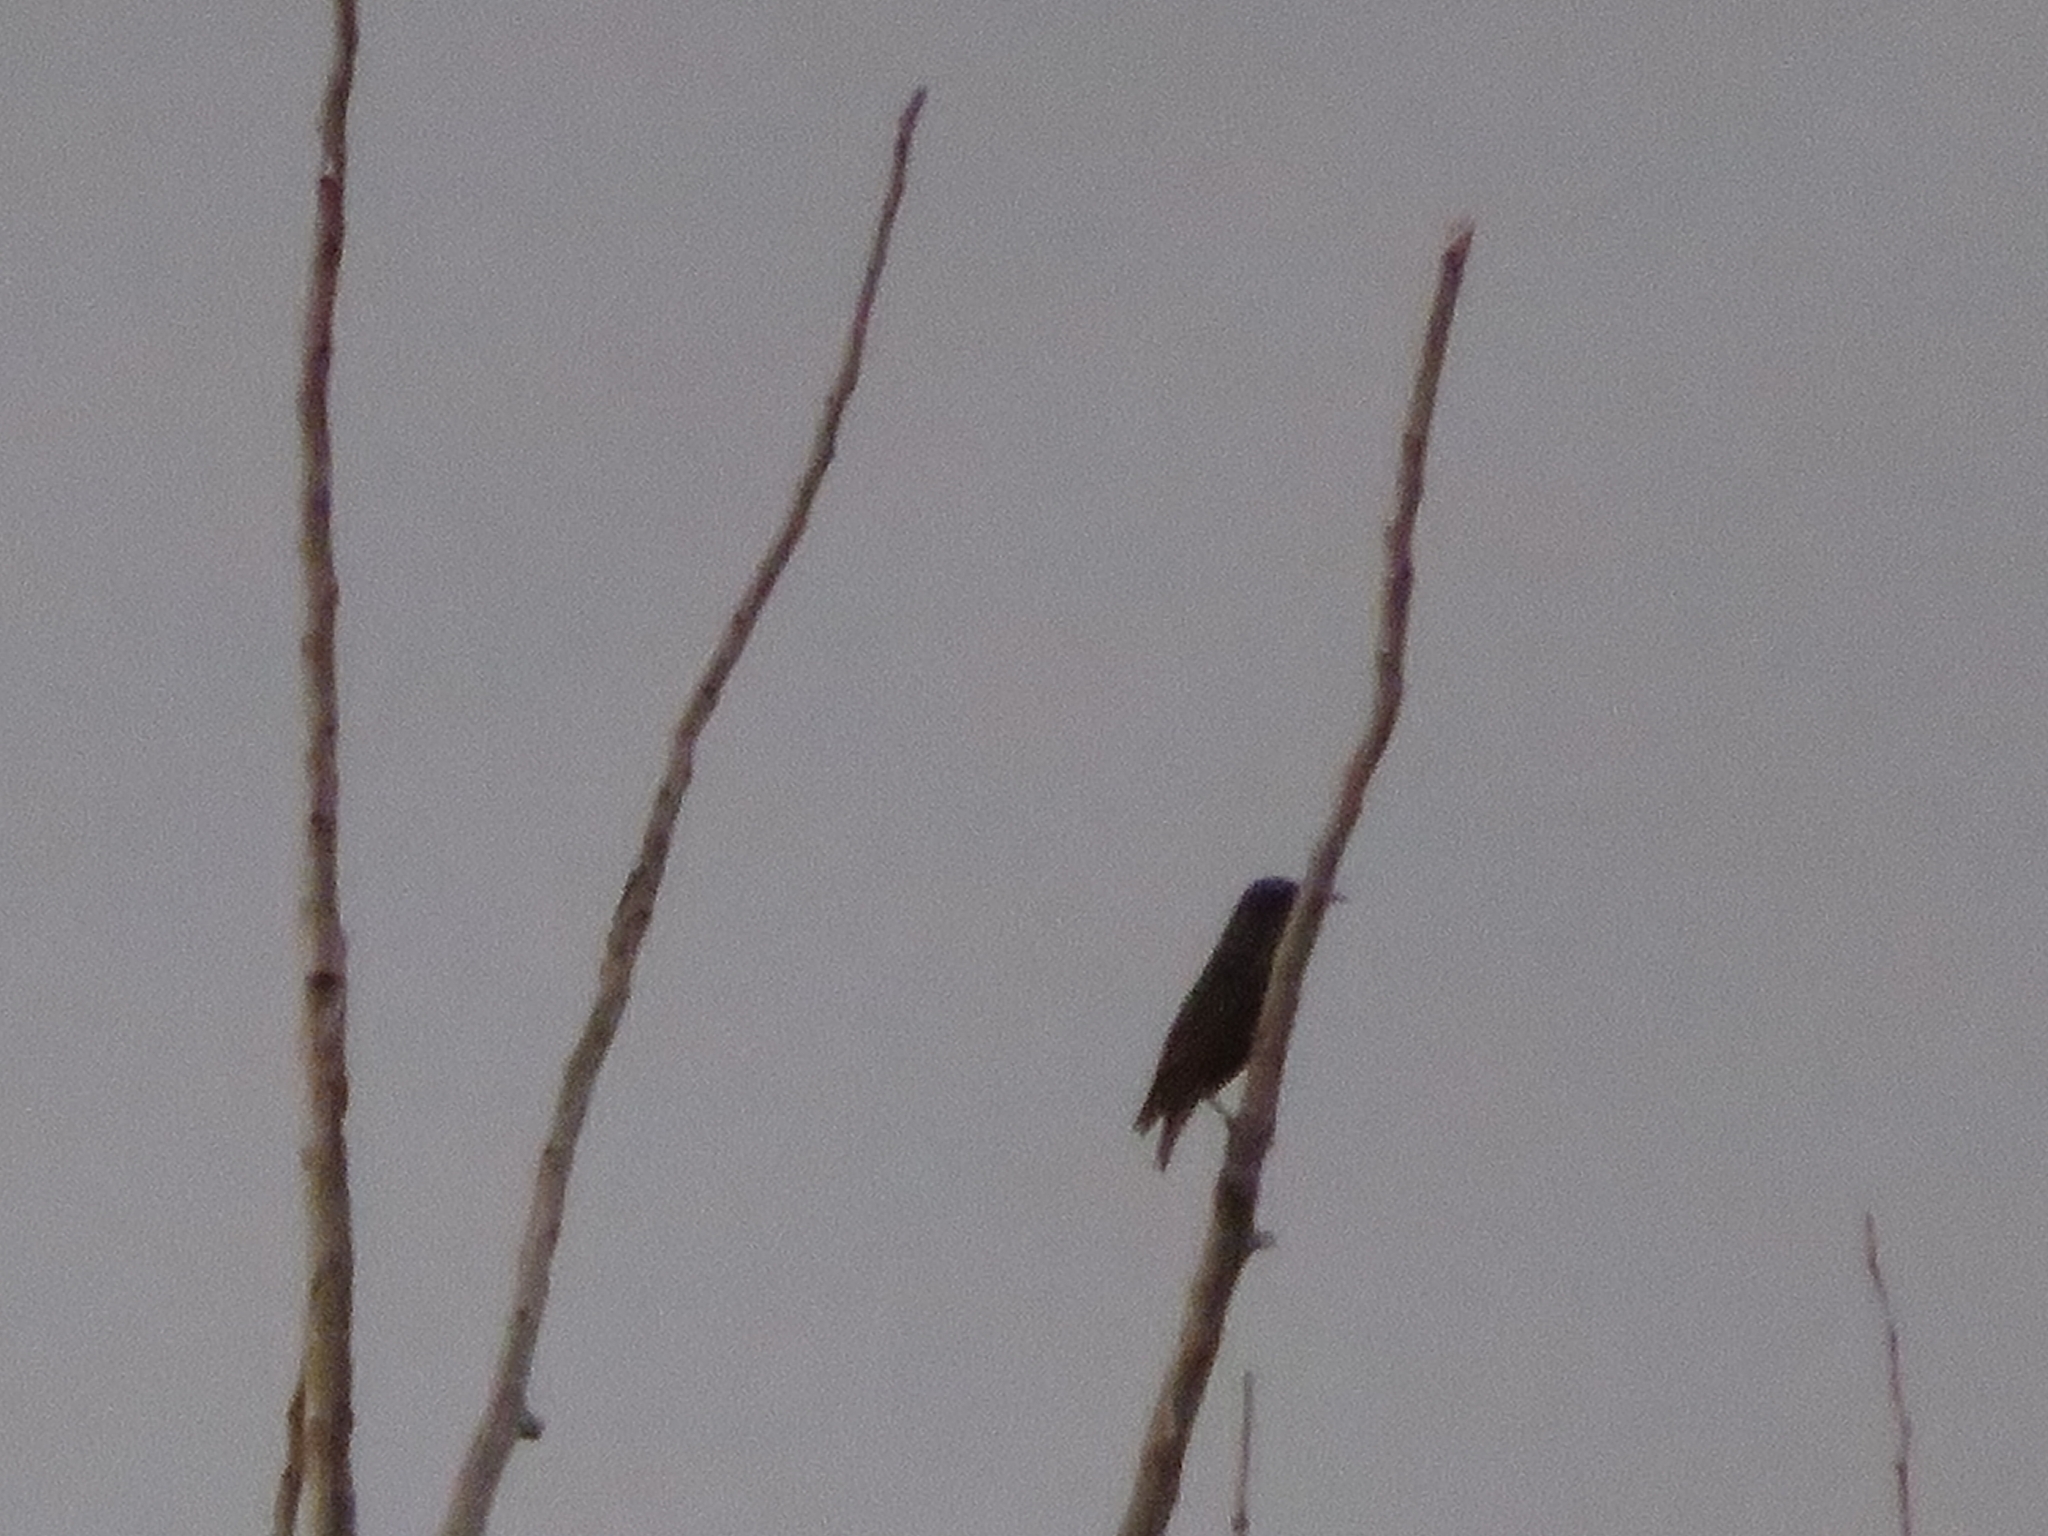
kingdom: Animalia
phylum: Chordata
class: Aves
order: Passeriformes
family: Sturnidae
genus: Sturnus
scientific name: Sturnus vulgaris
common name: Common starling
